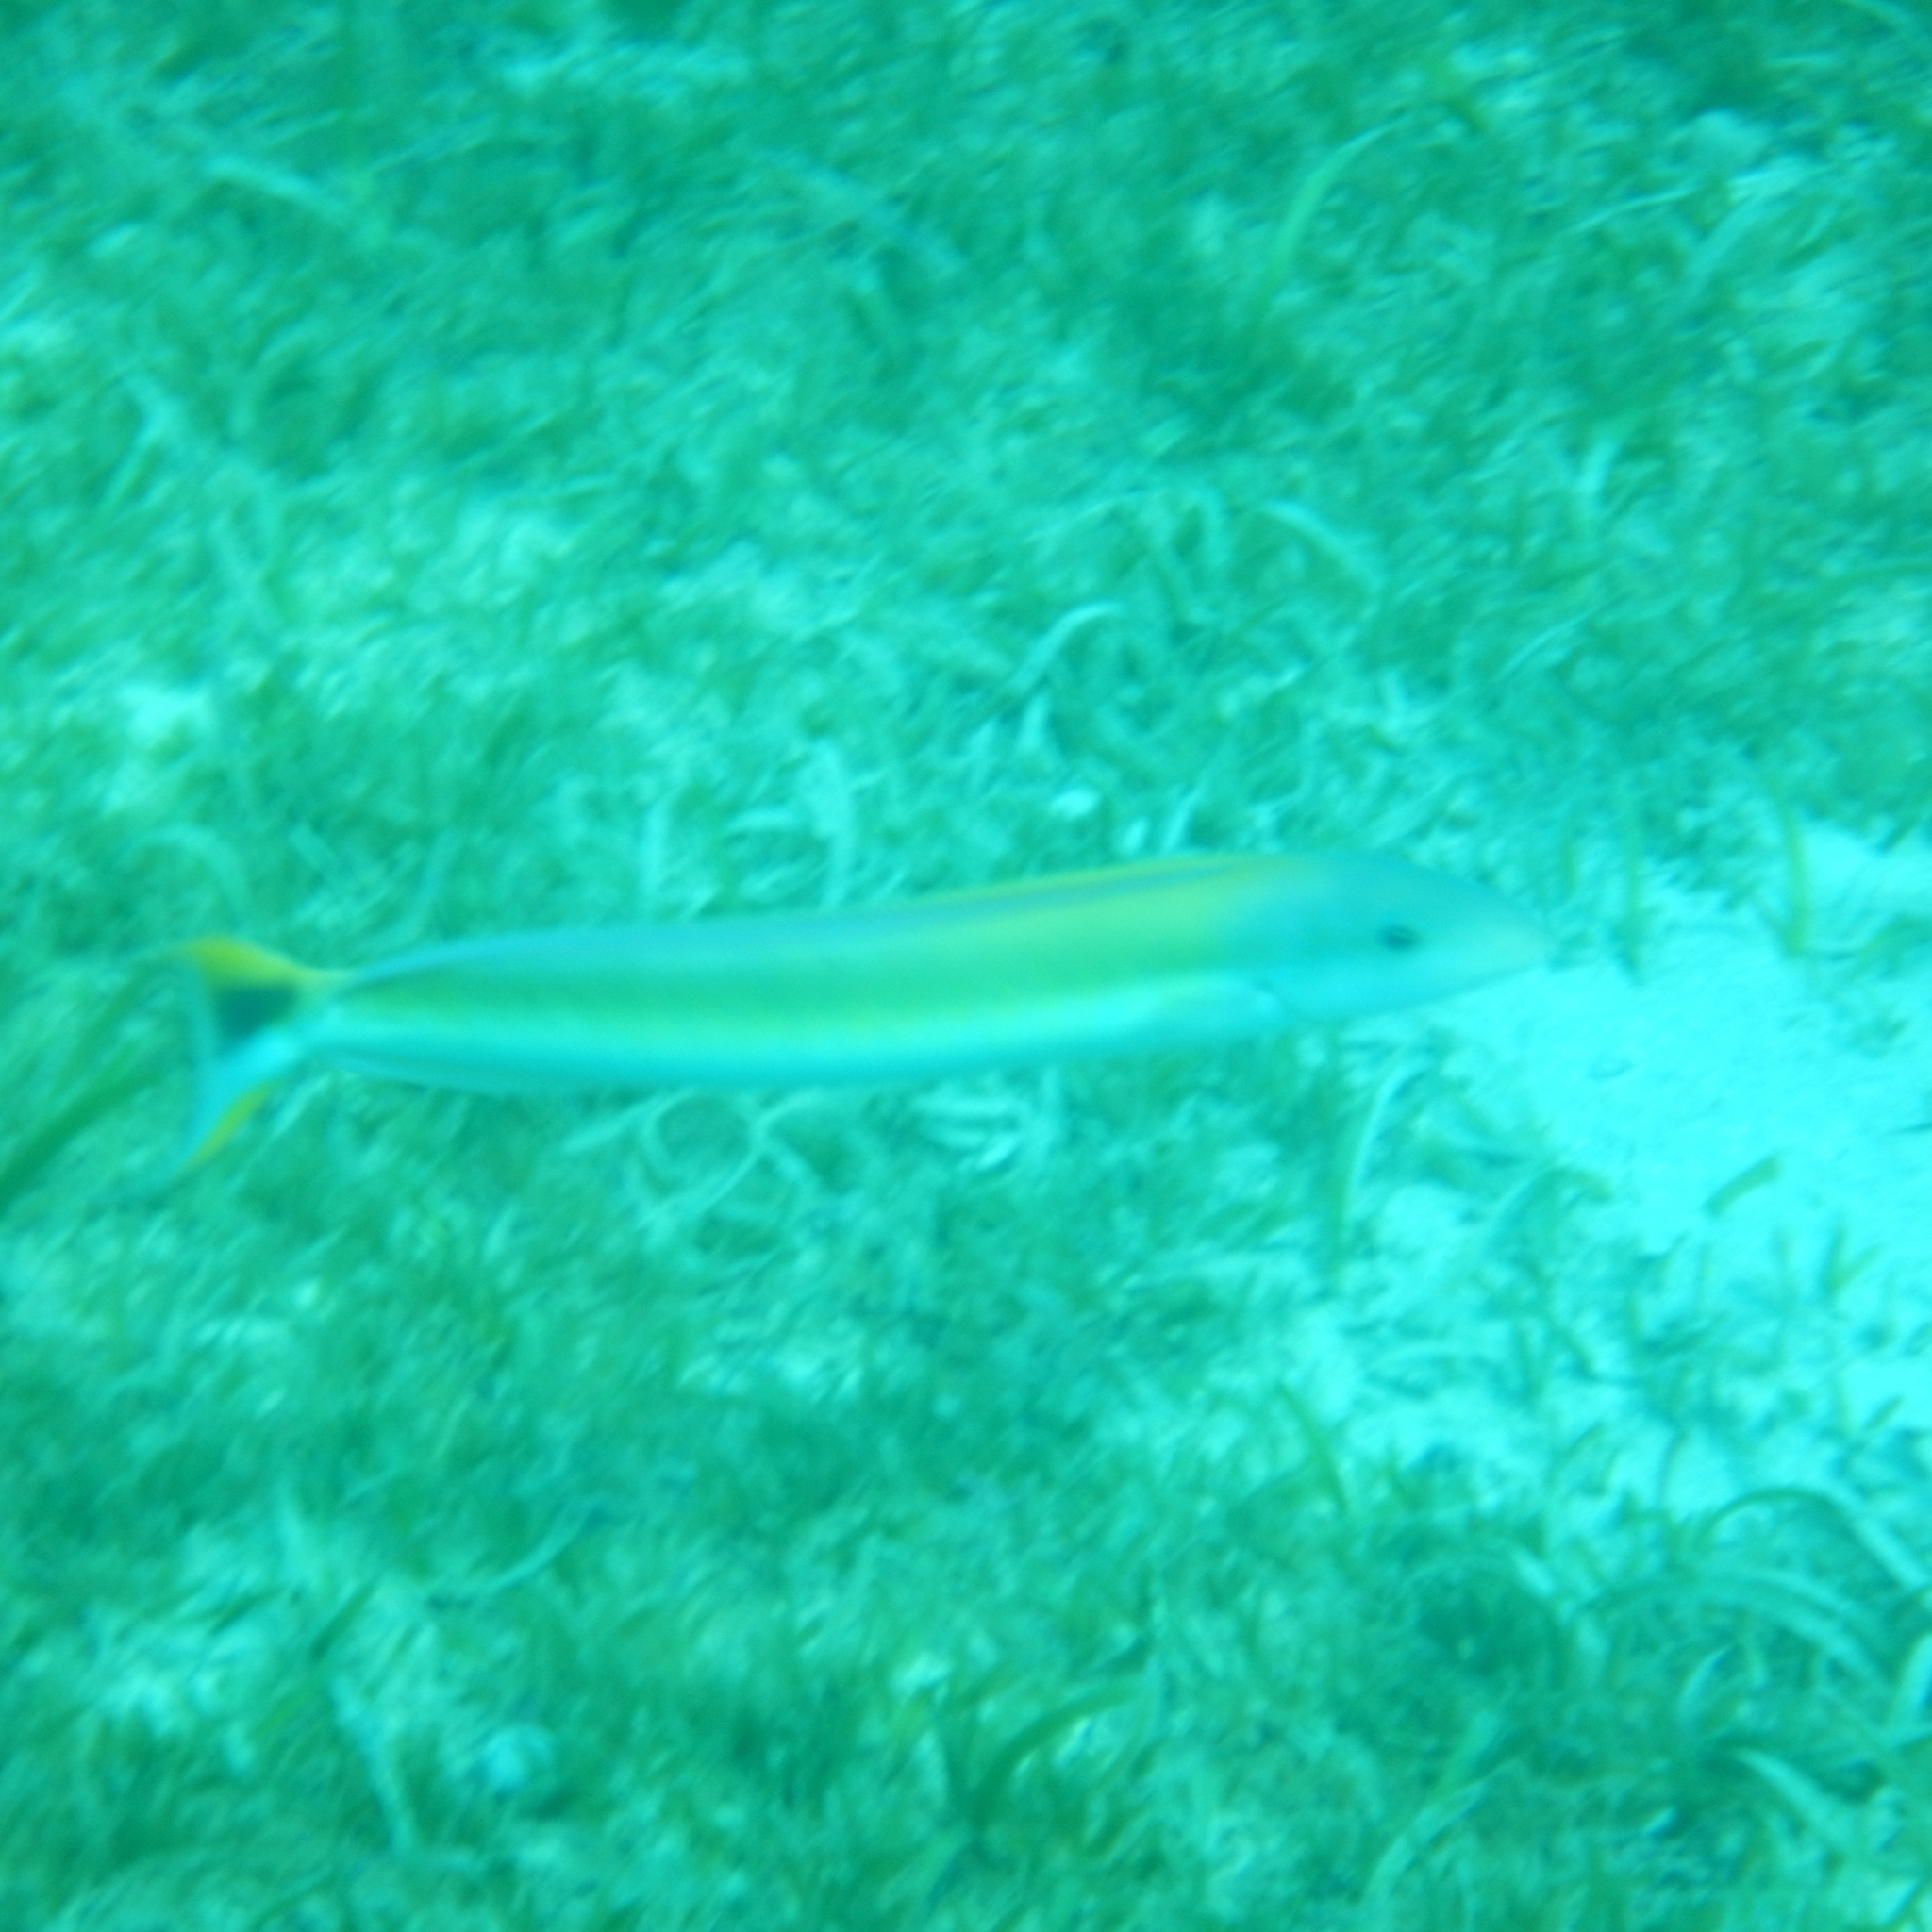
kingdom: Animalia
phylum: Chordata
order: Perciformes
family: Malacanthidae
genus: Malacanthus
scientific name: Malacanthus plumieri
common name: Sand tilefish
